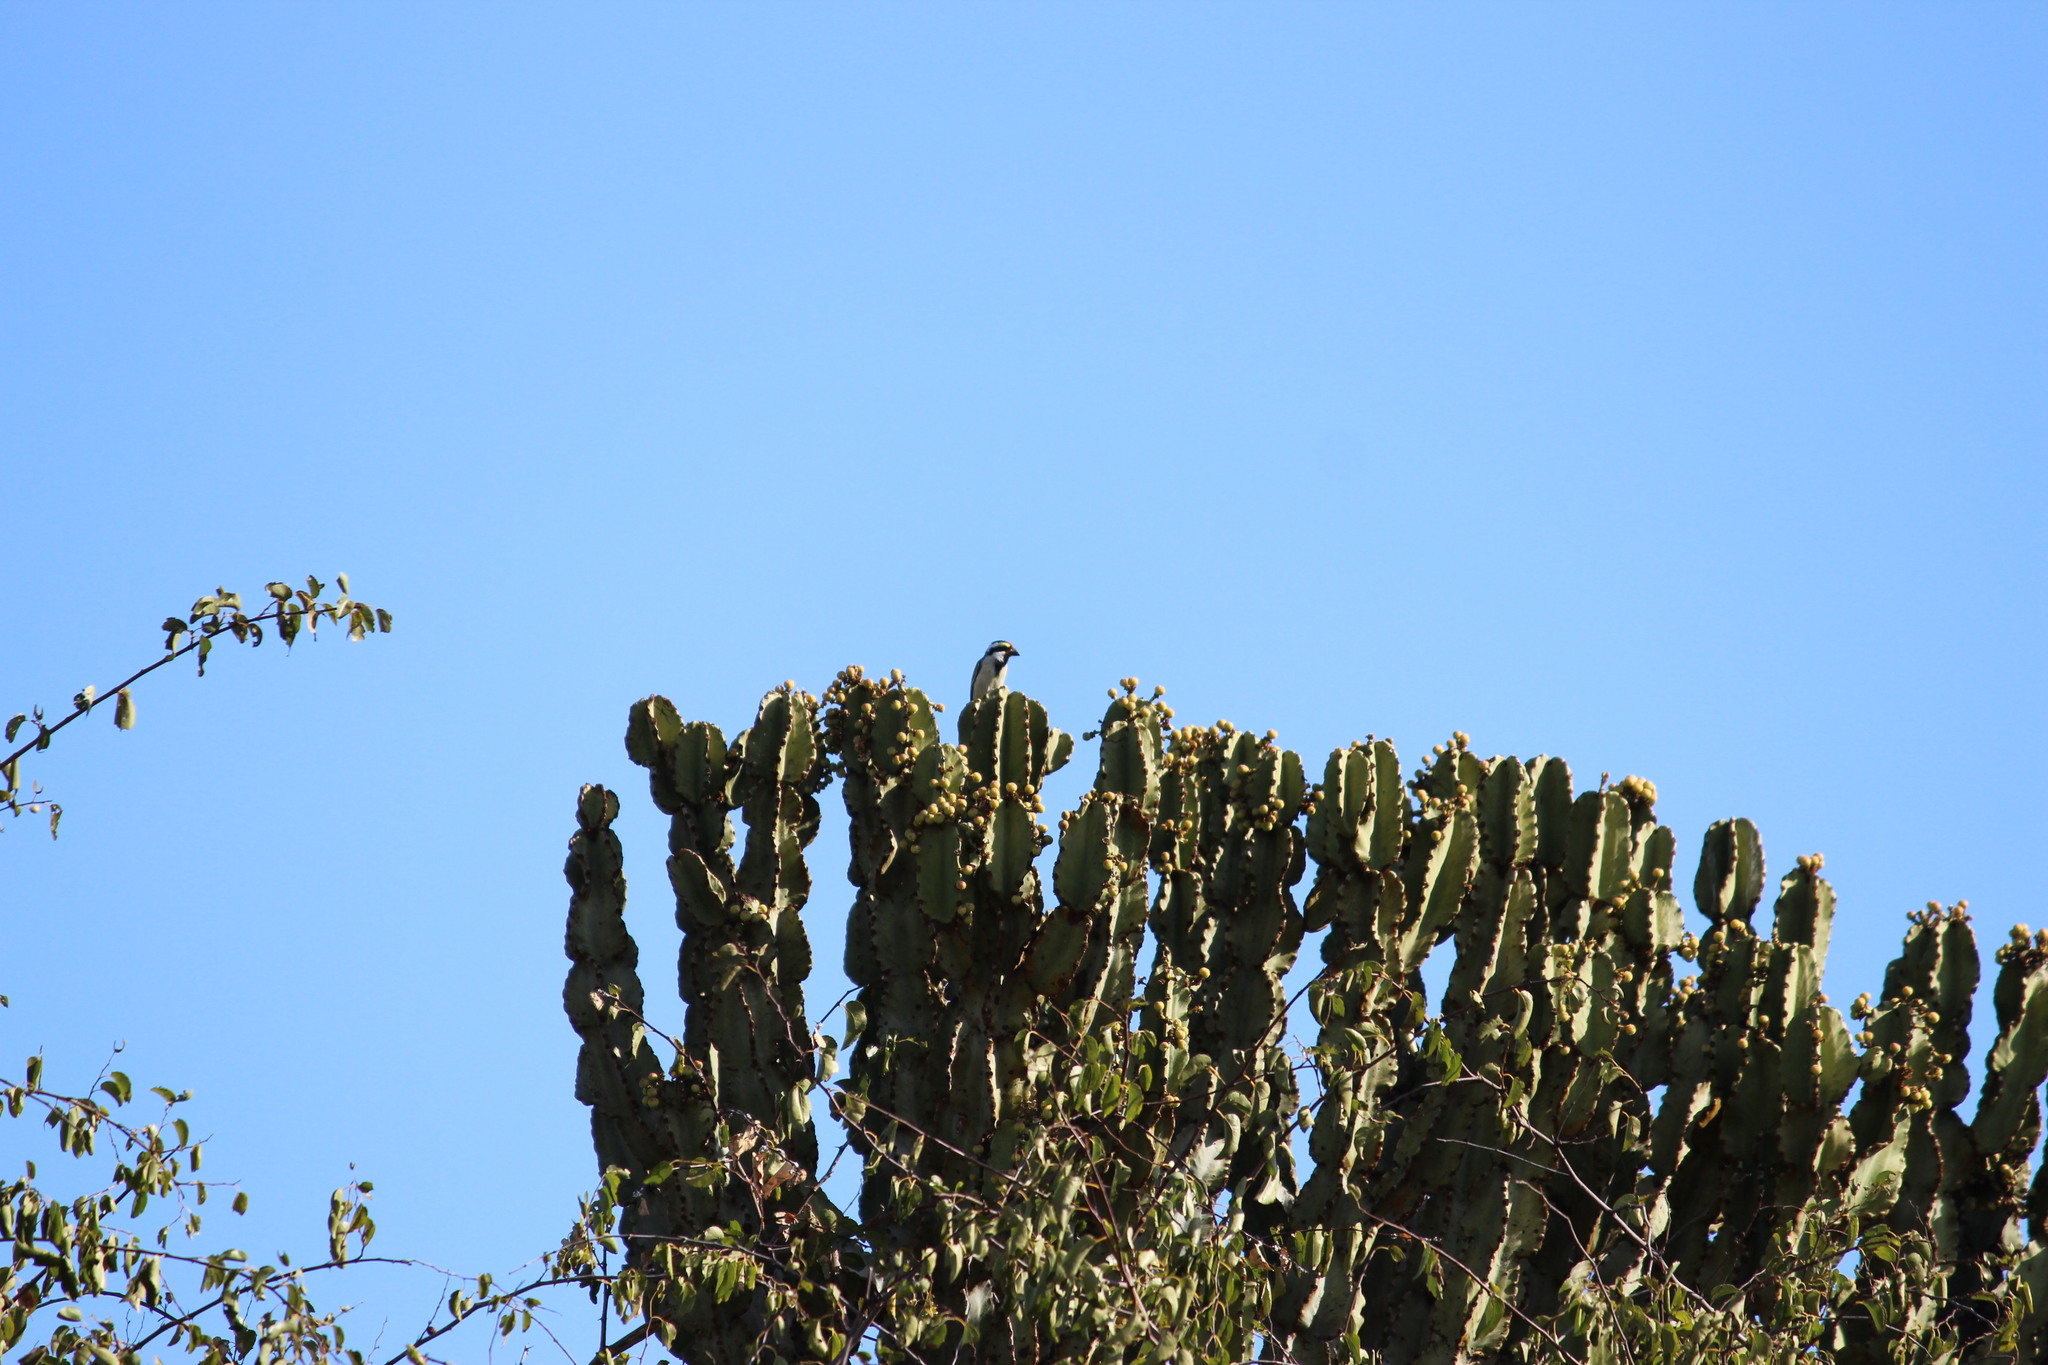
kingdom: Animalia
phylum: Chordata
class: Aves
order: Piciformes
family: Lybiidae
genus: Tricholaema
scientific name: Tricholaema leucomelas
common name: Acacia pied barbet
